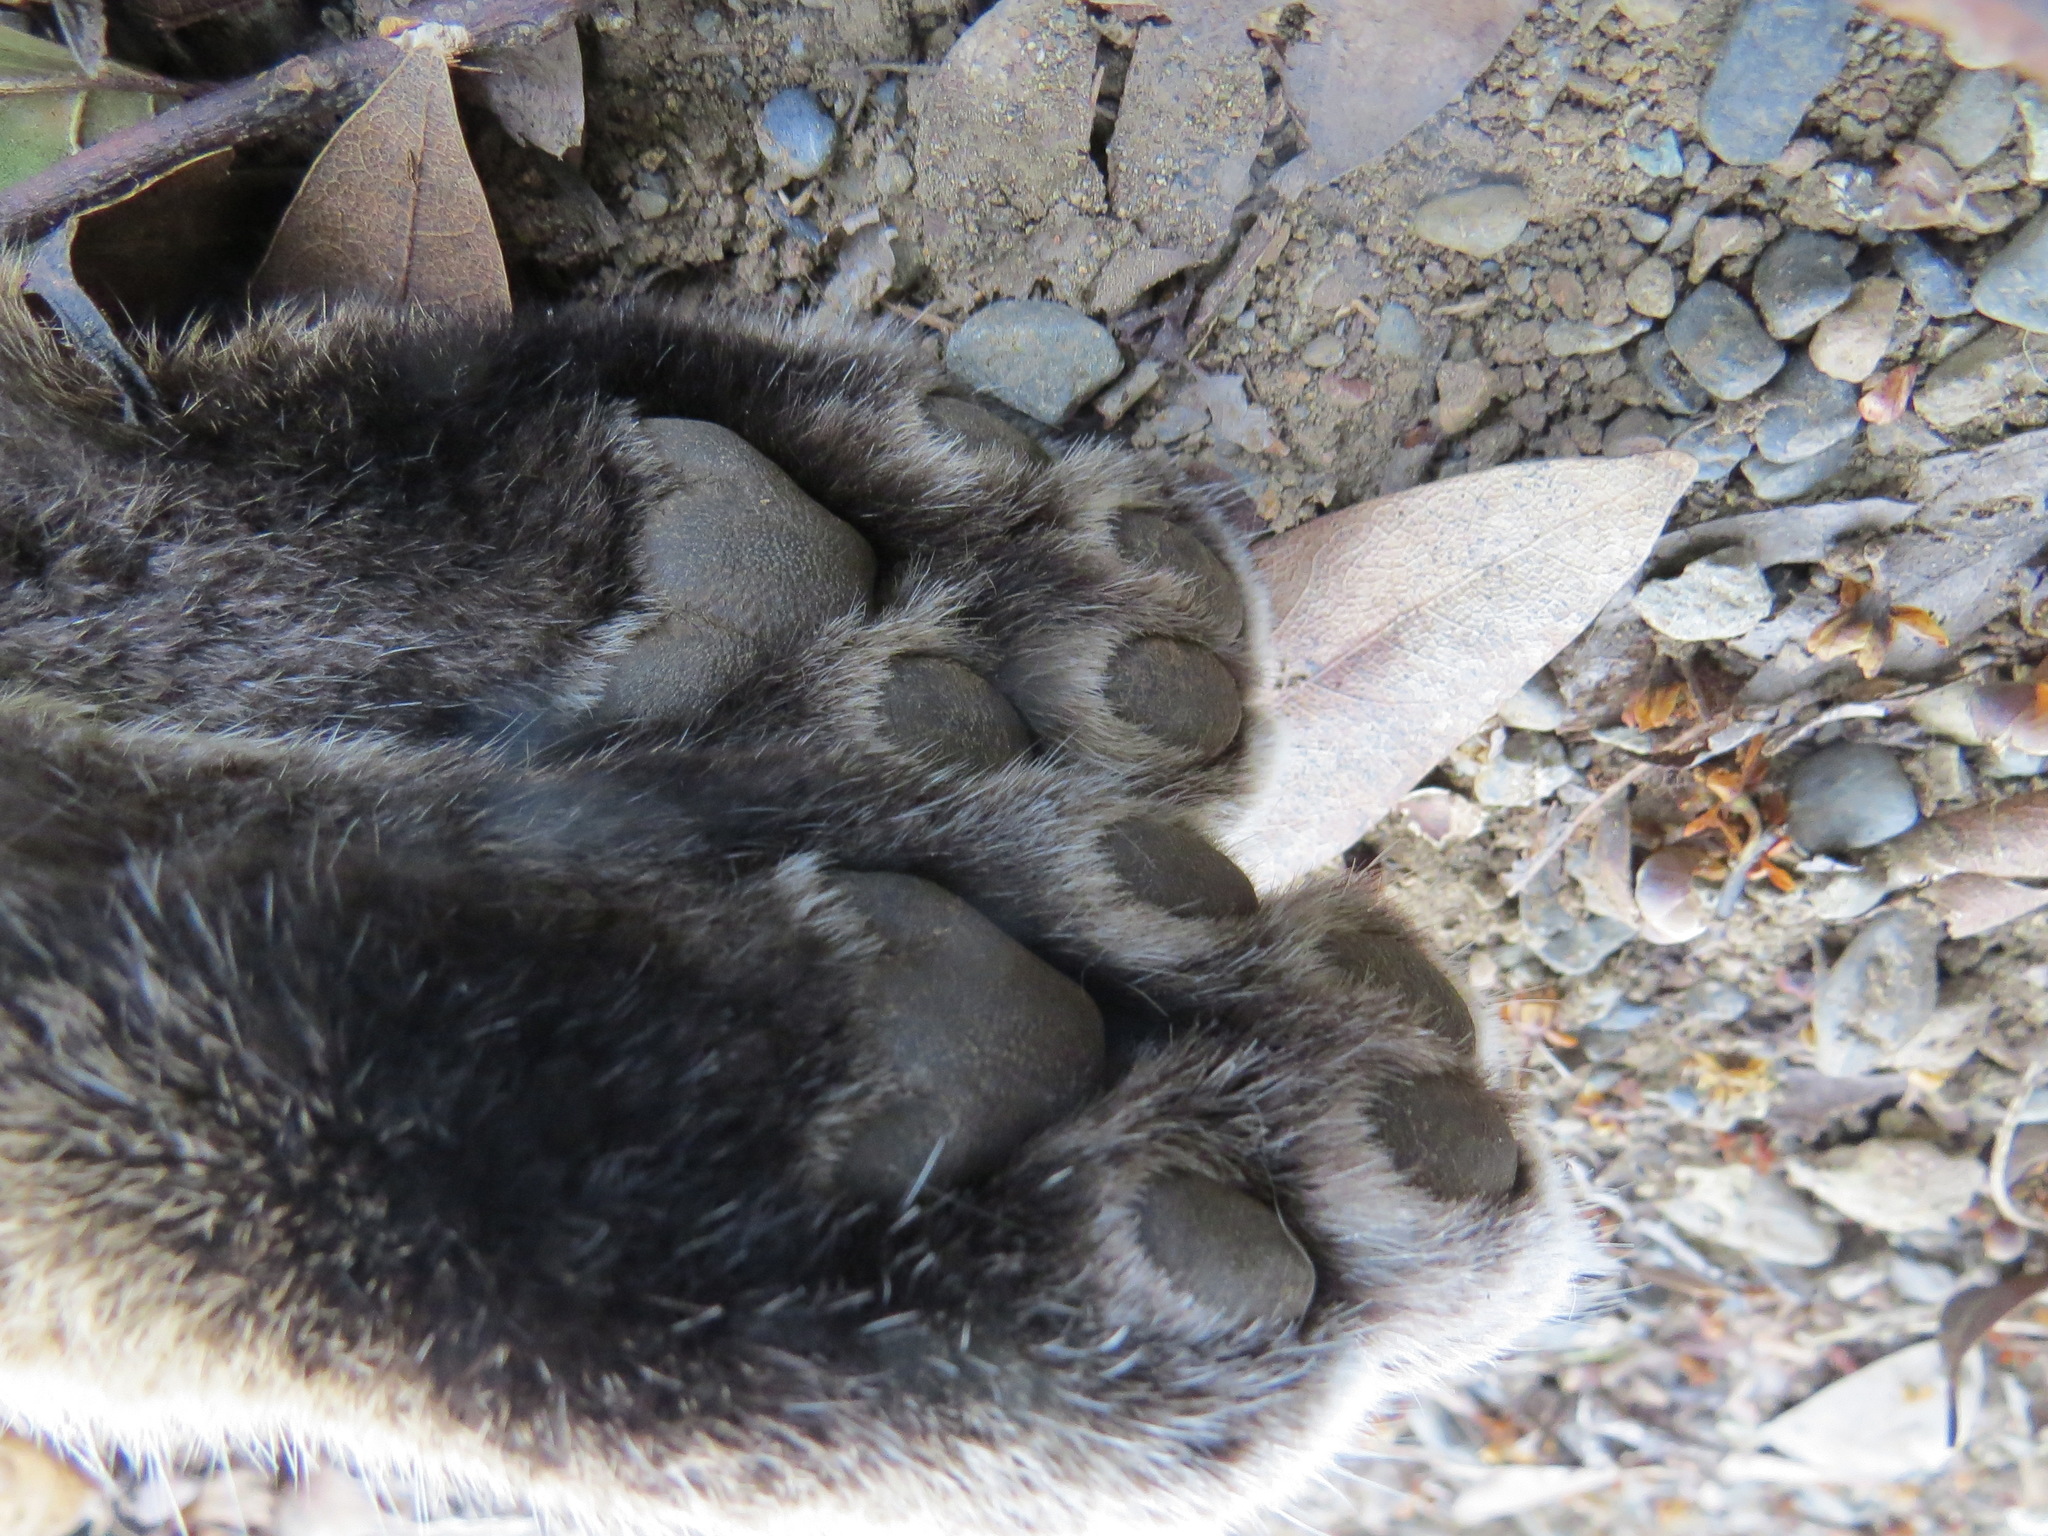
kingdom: Animalia
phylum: Chordata
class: Mammalia
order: Carnivora
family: Felidae
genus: Lynx
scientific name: Lynx rufus
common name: Bobcat
